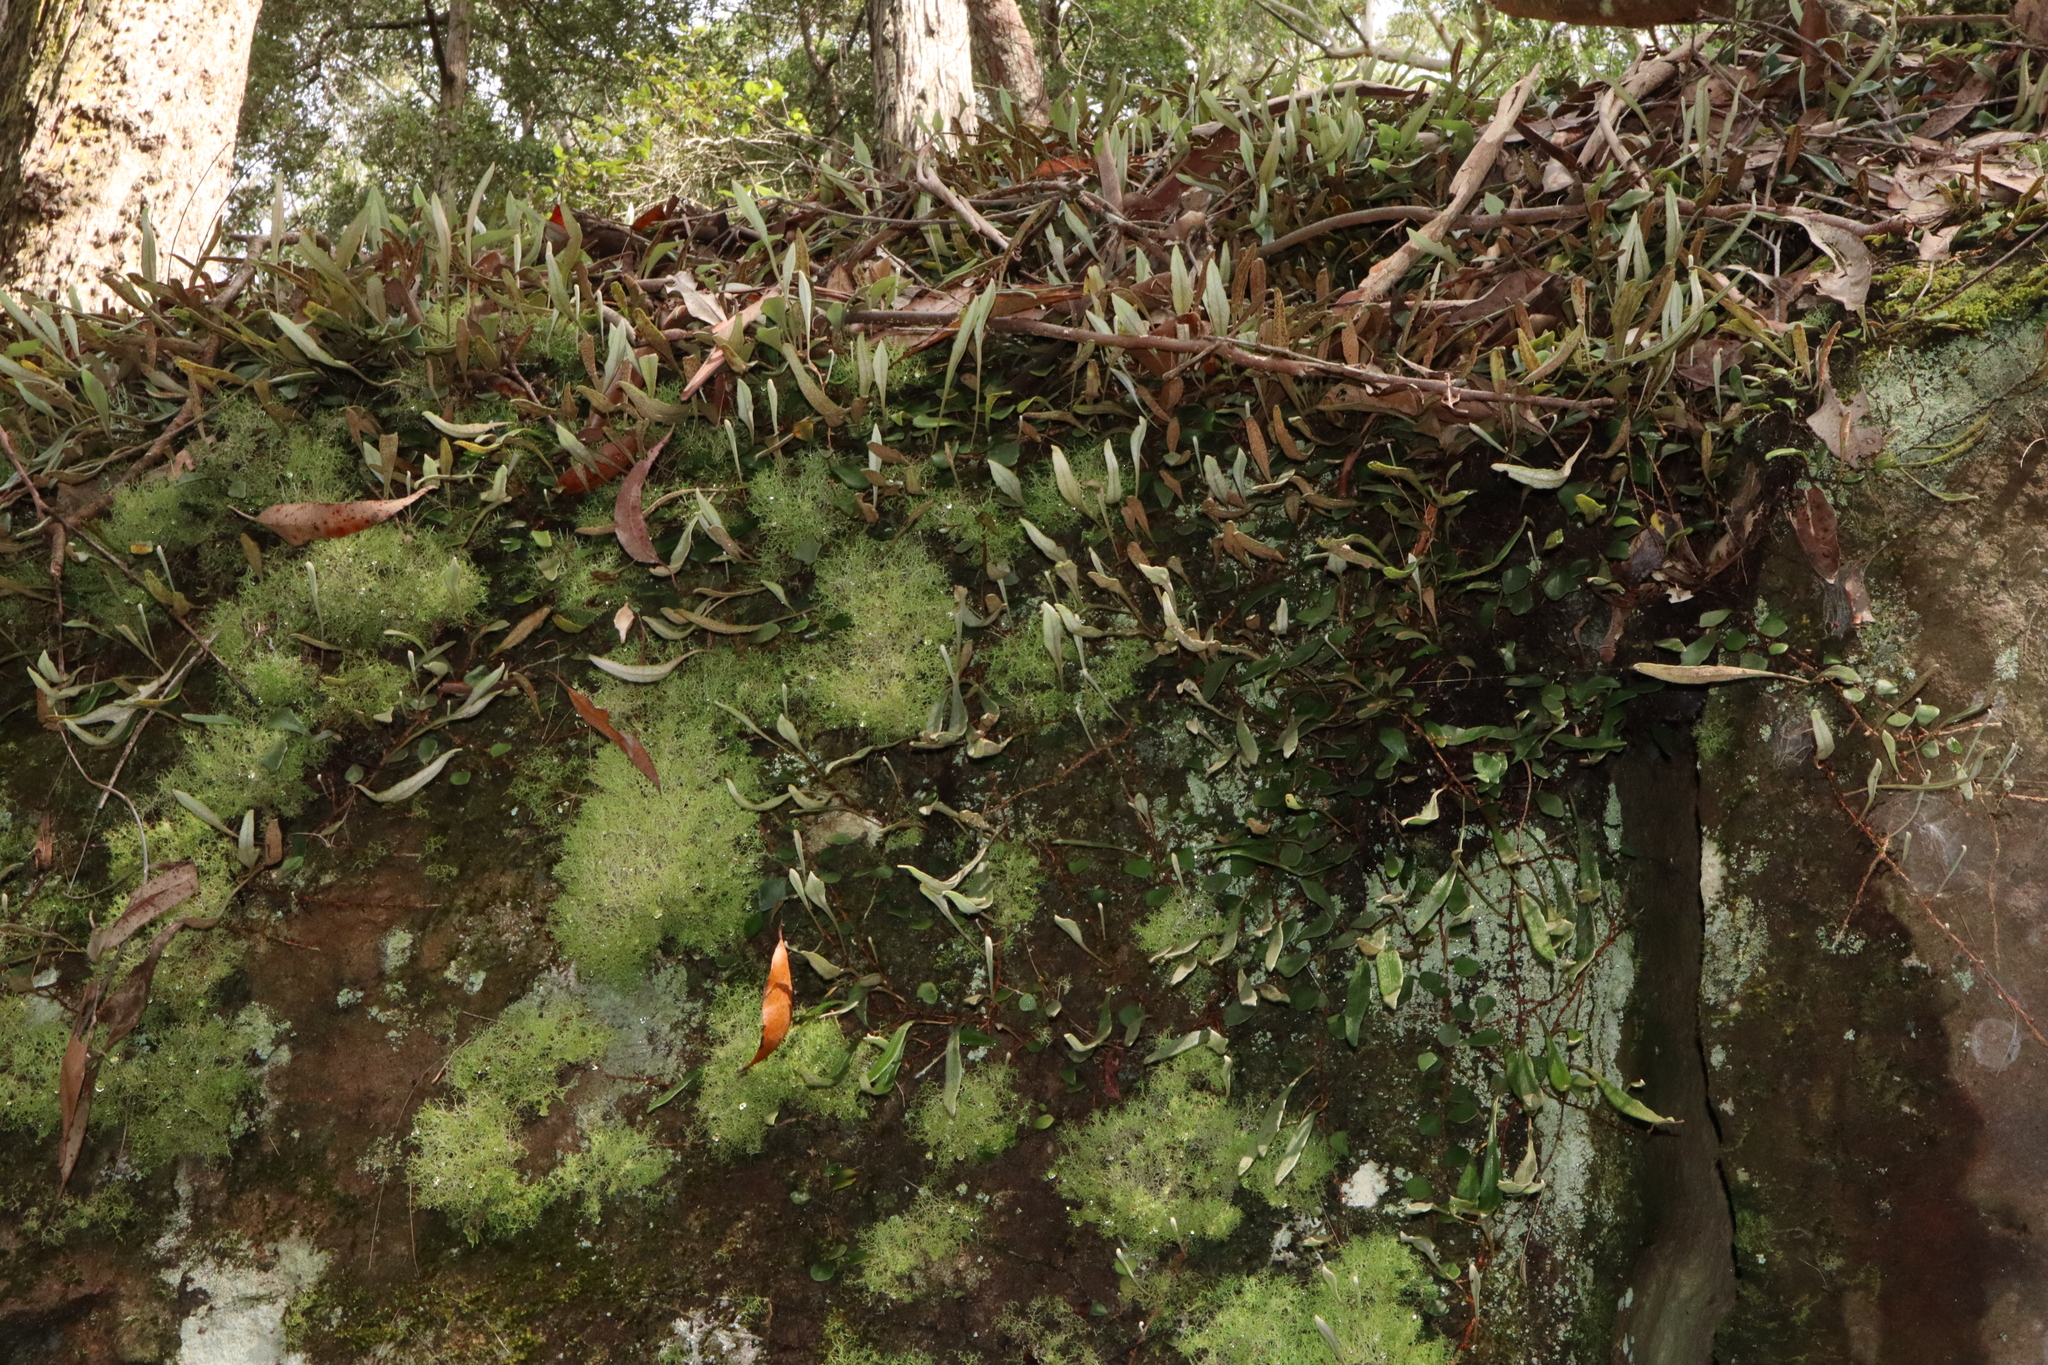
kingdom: Plantae
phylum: Tracheophyta
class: Polypodiopsida
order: Polypodiales
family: Polypodiaceae
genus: Pyrrosia
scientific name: Pyrrosia rupestris
